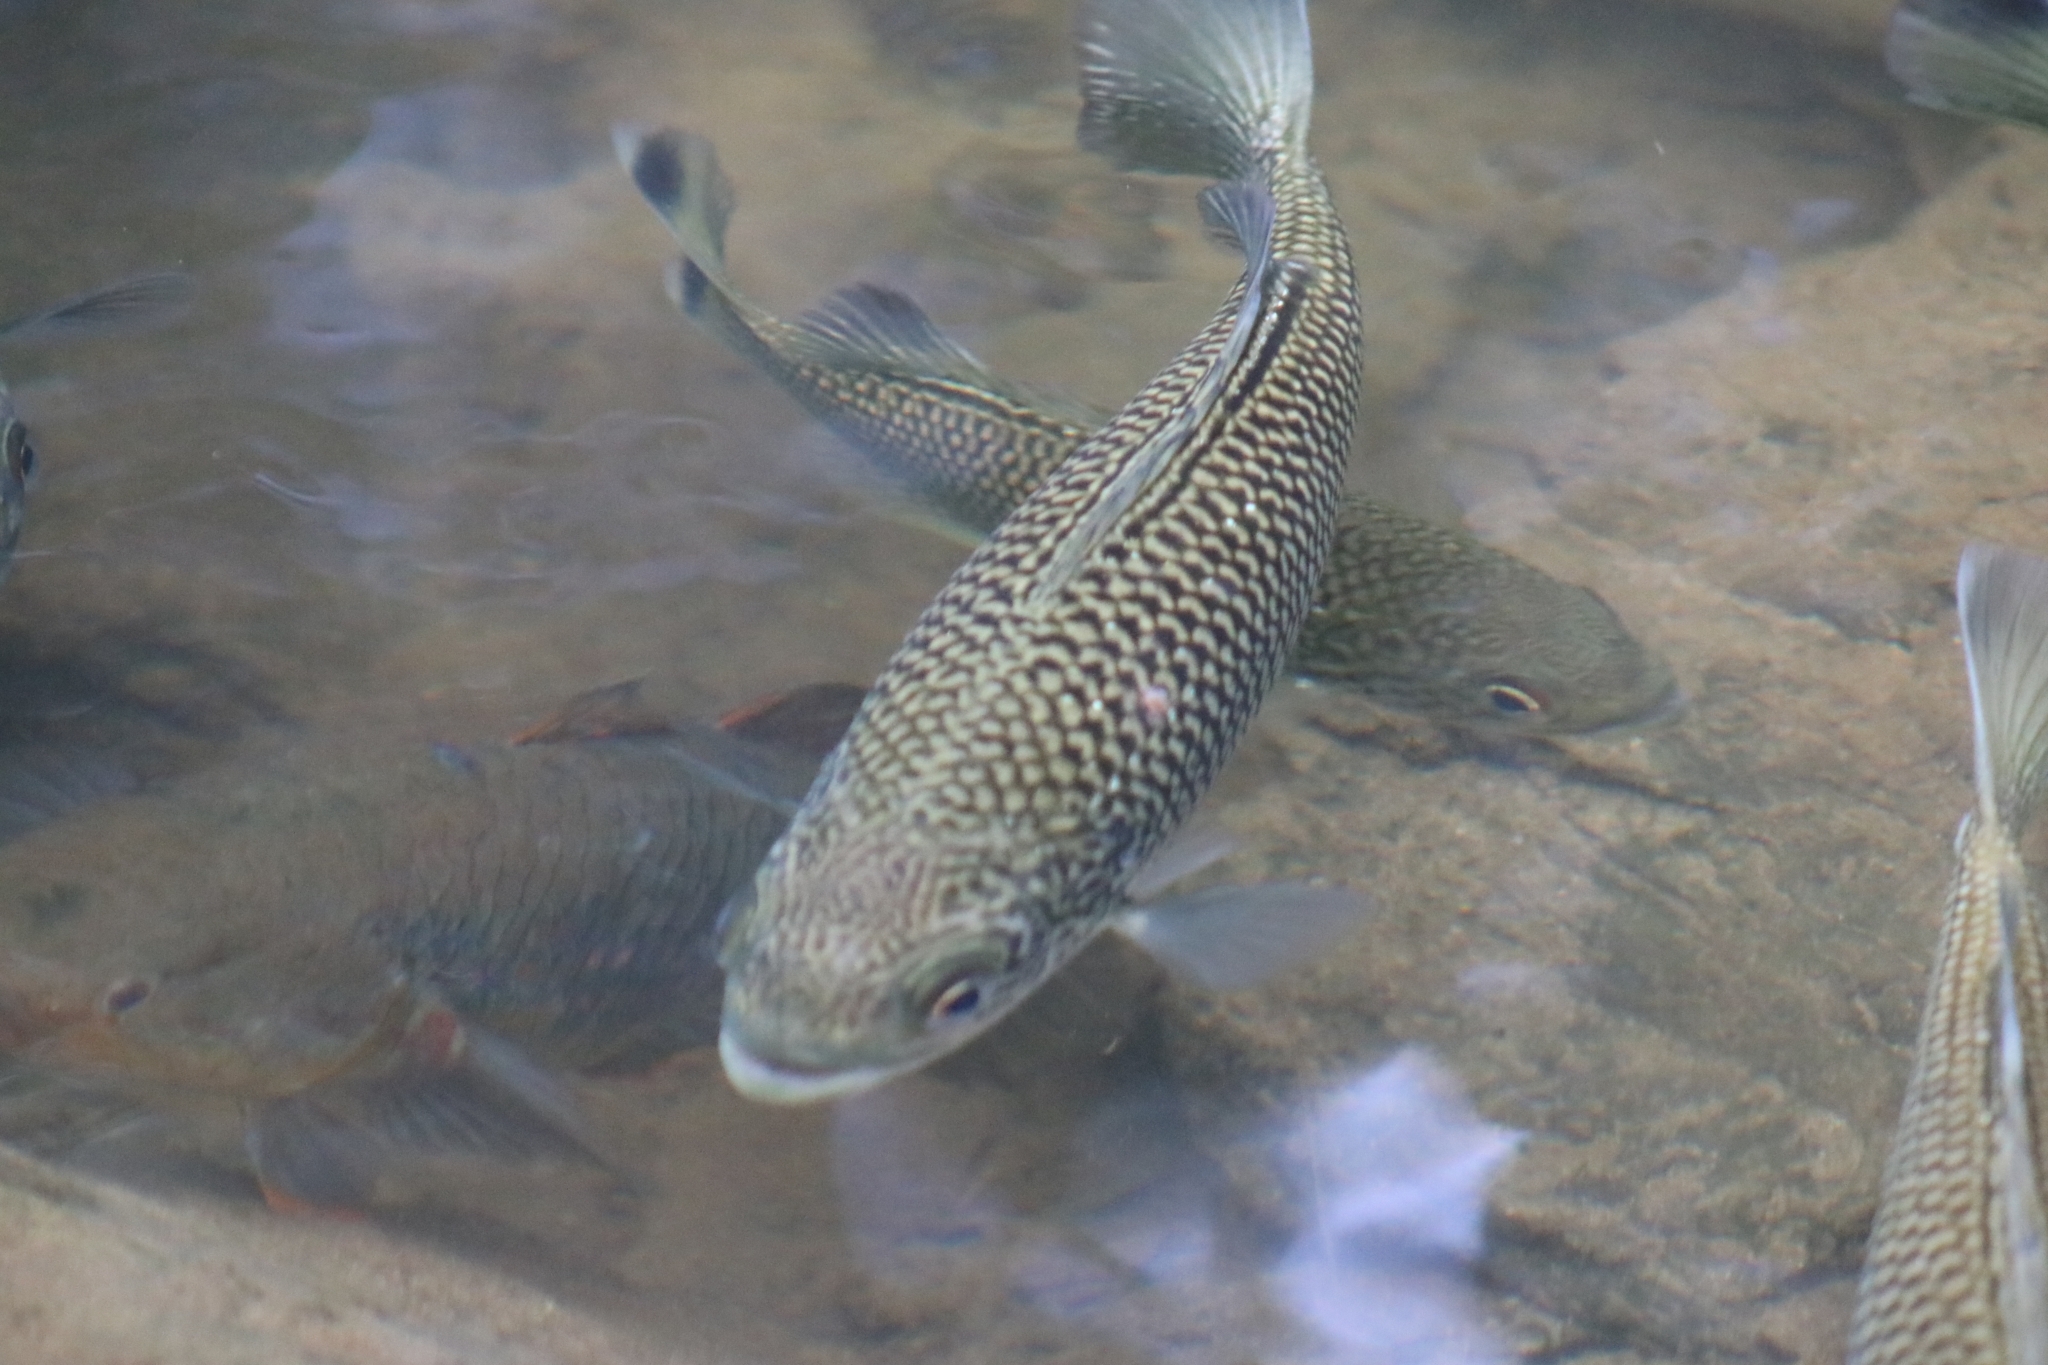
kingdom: Animalia
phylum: Chordata
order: Perciformes
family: Kuhliidae
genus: Kuhlia
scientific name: Kuhlia rupestris
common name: Rock flagtail
